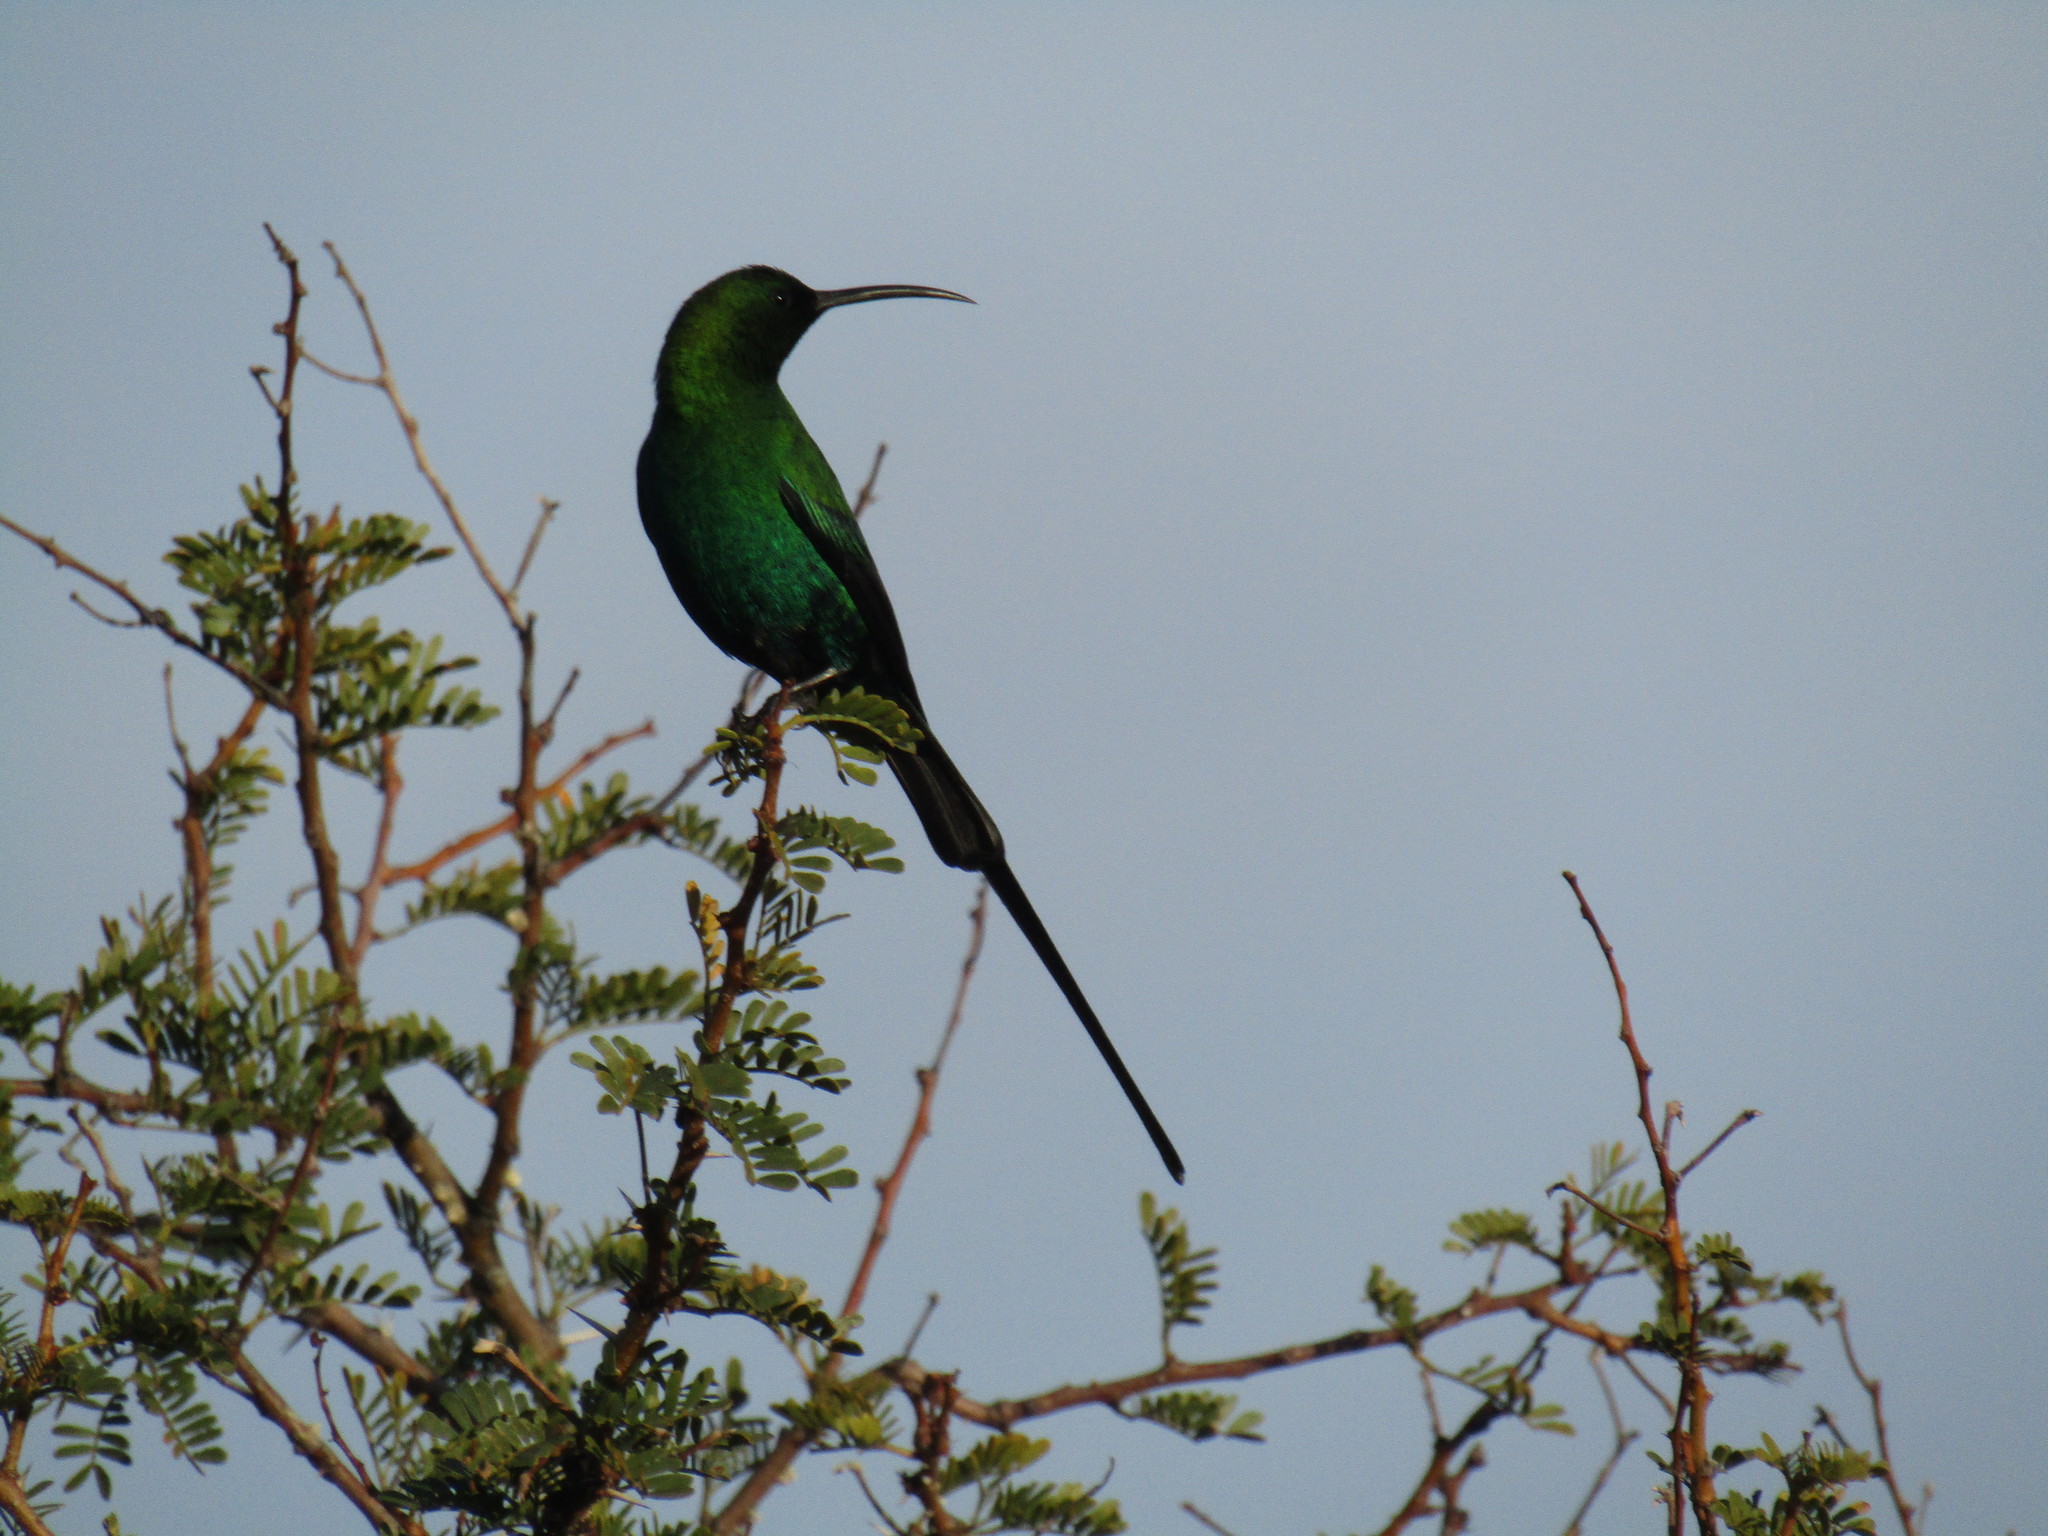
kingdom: Animalia
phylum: Chordata
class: Aves
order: Passeriformes
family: Nectariniidae
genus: Nectarinia
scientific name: Nectarinia famosa
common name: Malachite sunbird
